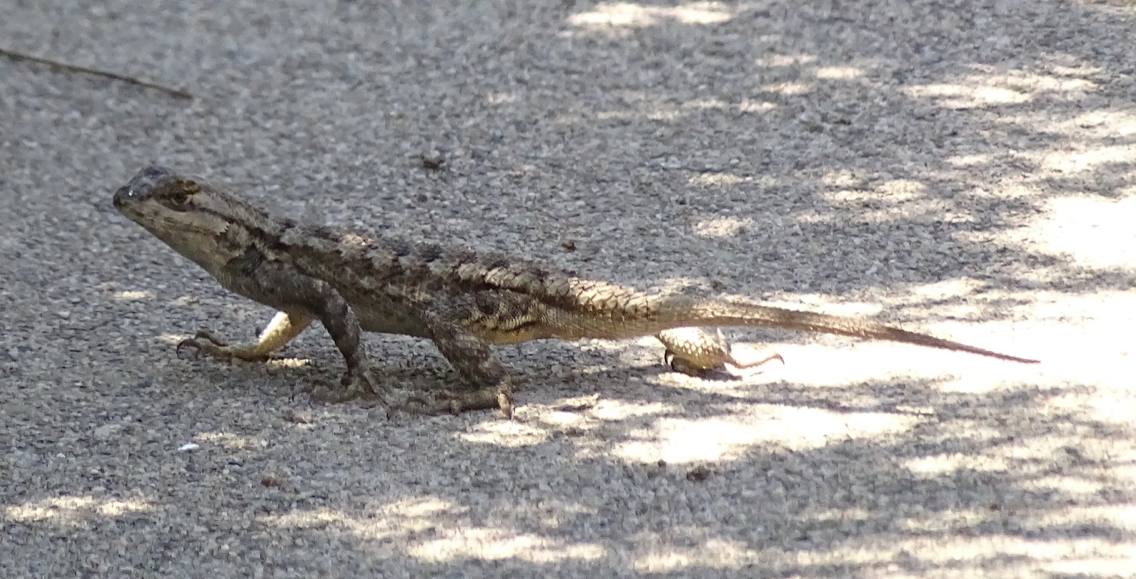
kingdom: Animalia
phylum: Chordata
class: Squamata
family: Phrynosomatidae
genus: Sceloporus
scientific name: Sceloporus occidentalis
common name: Western fence lizard
